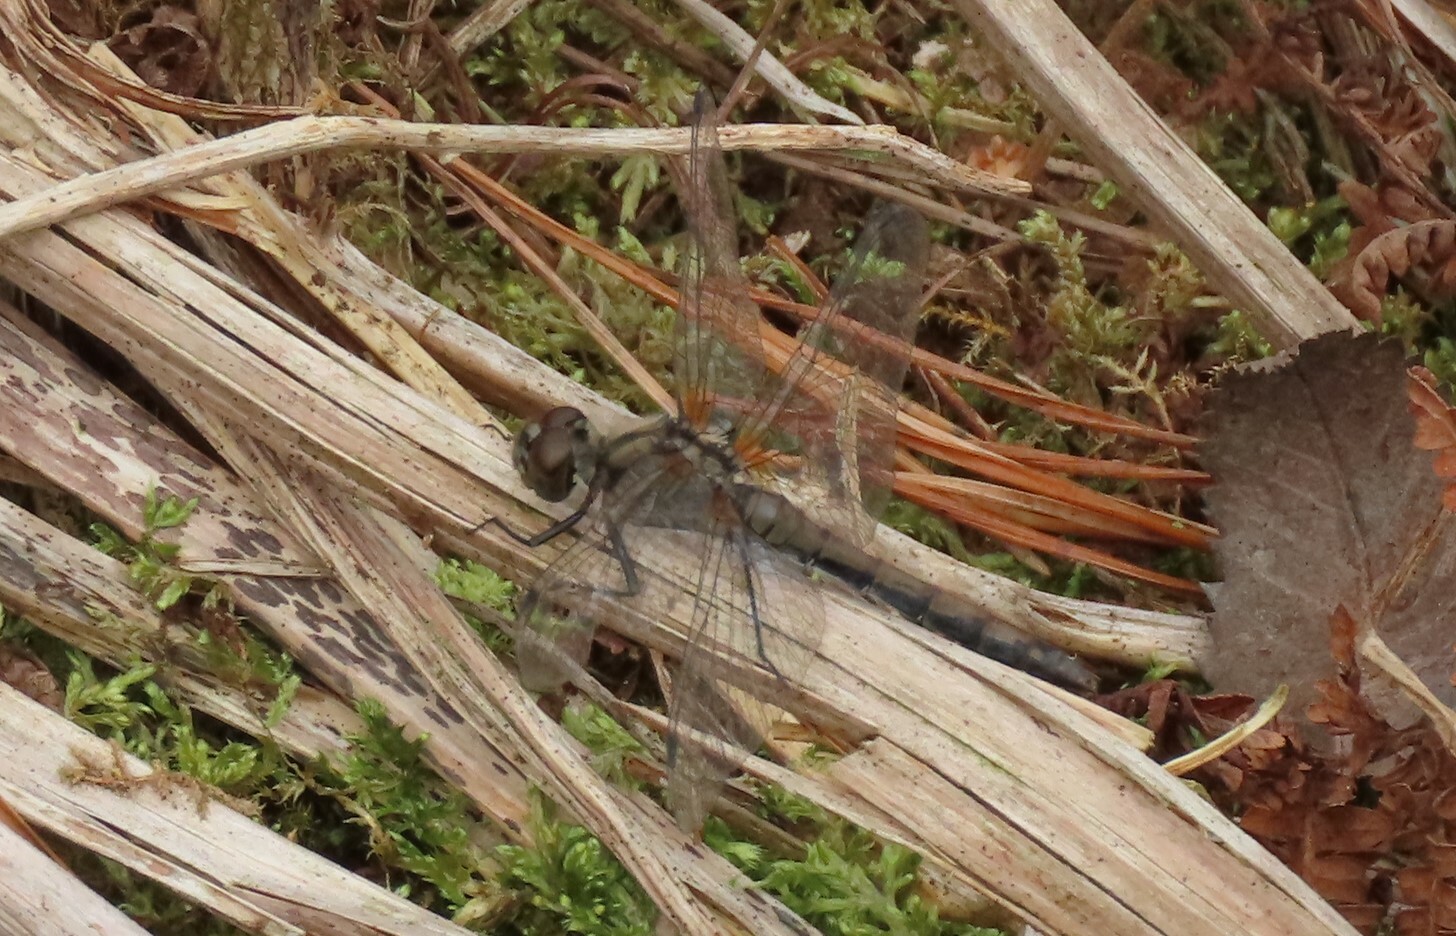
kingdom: Animalia
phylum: Arthropoda
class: Insecta
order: Odonata
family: Libellulidae
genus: Sympetrum
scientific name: Sympetrum danae
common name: Black darter
